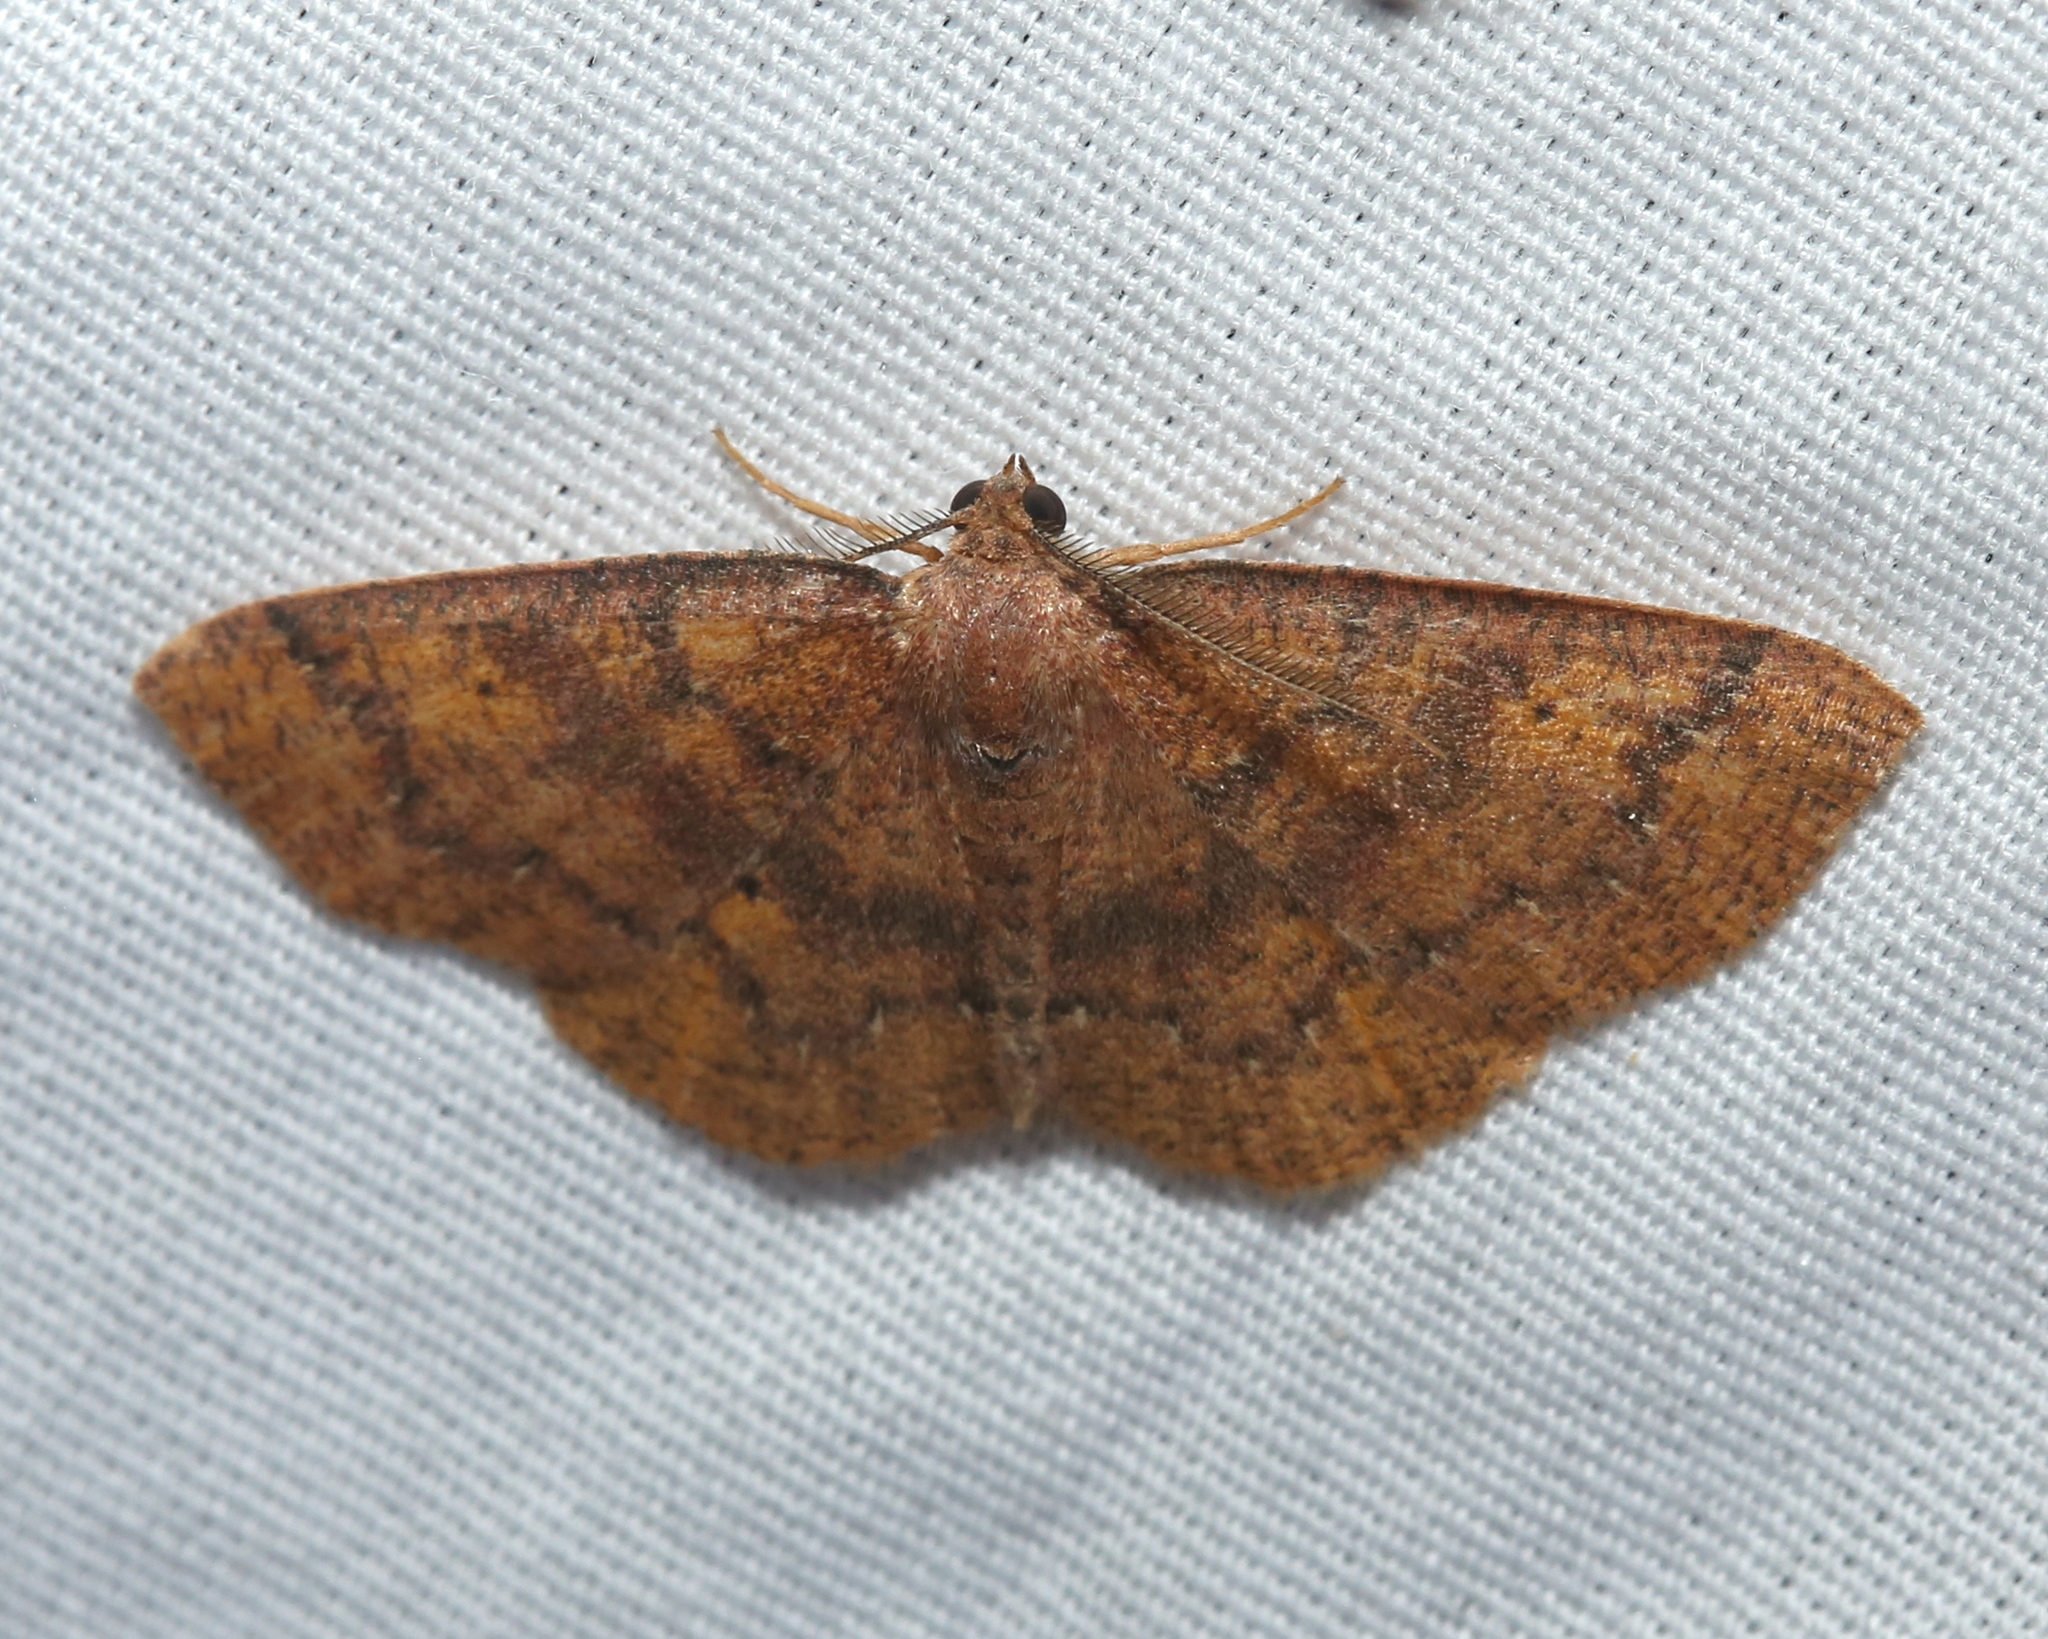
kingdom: Animalia
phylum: Arthropoda
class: Insecta
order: Lepidoptera
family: Geometridae
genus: Ilexia
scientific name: Ilexia intractata
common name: Black-dotted ruddy moth
